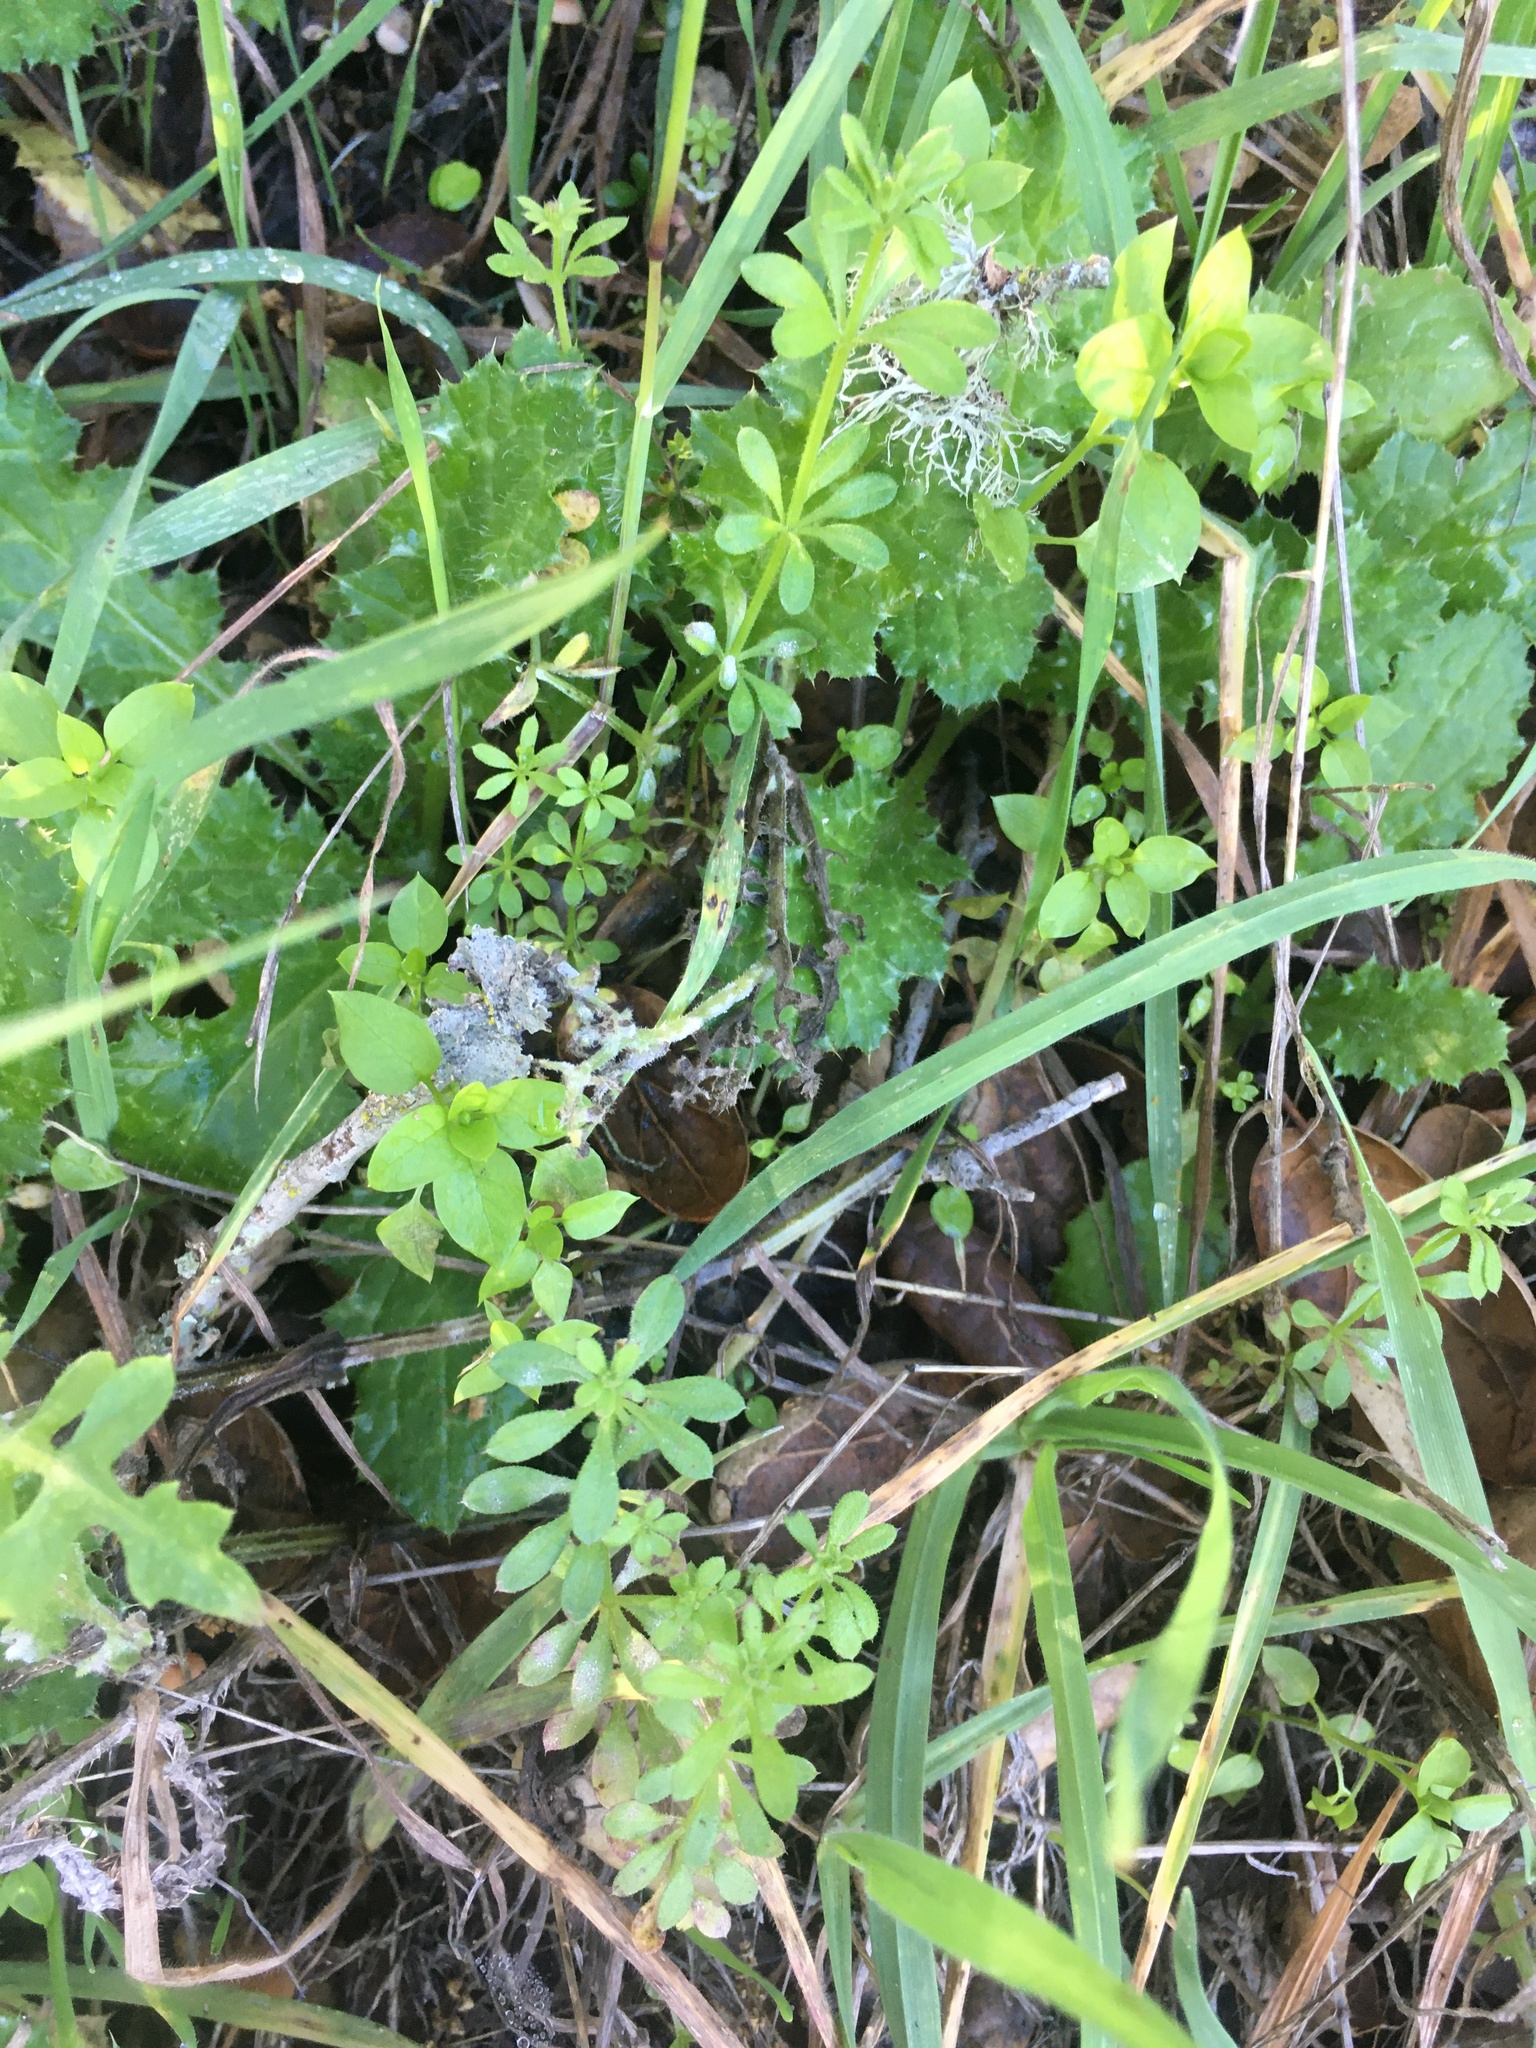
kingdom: Plantae
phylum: Tracheophyta
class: Magnoliopsida
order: Gentianales
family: Rubiaceae
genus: Galium
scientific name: Galium aparine
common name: Cleavers
